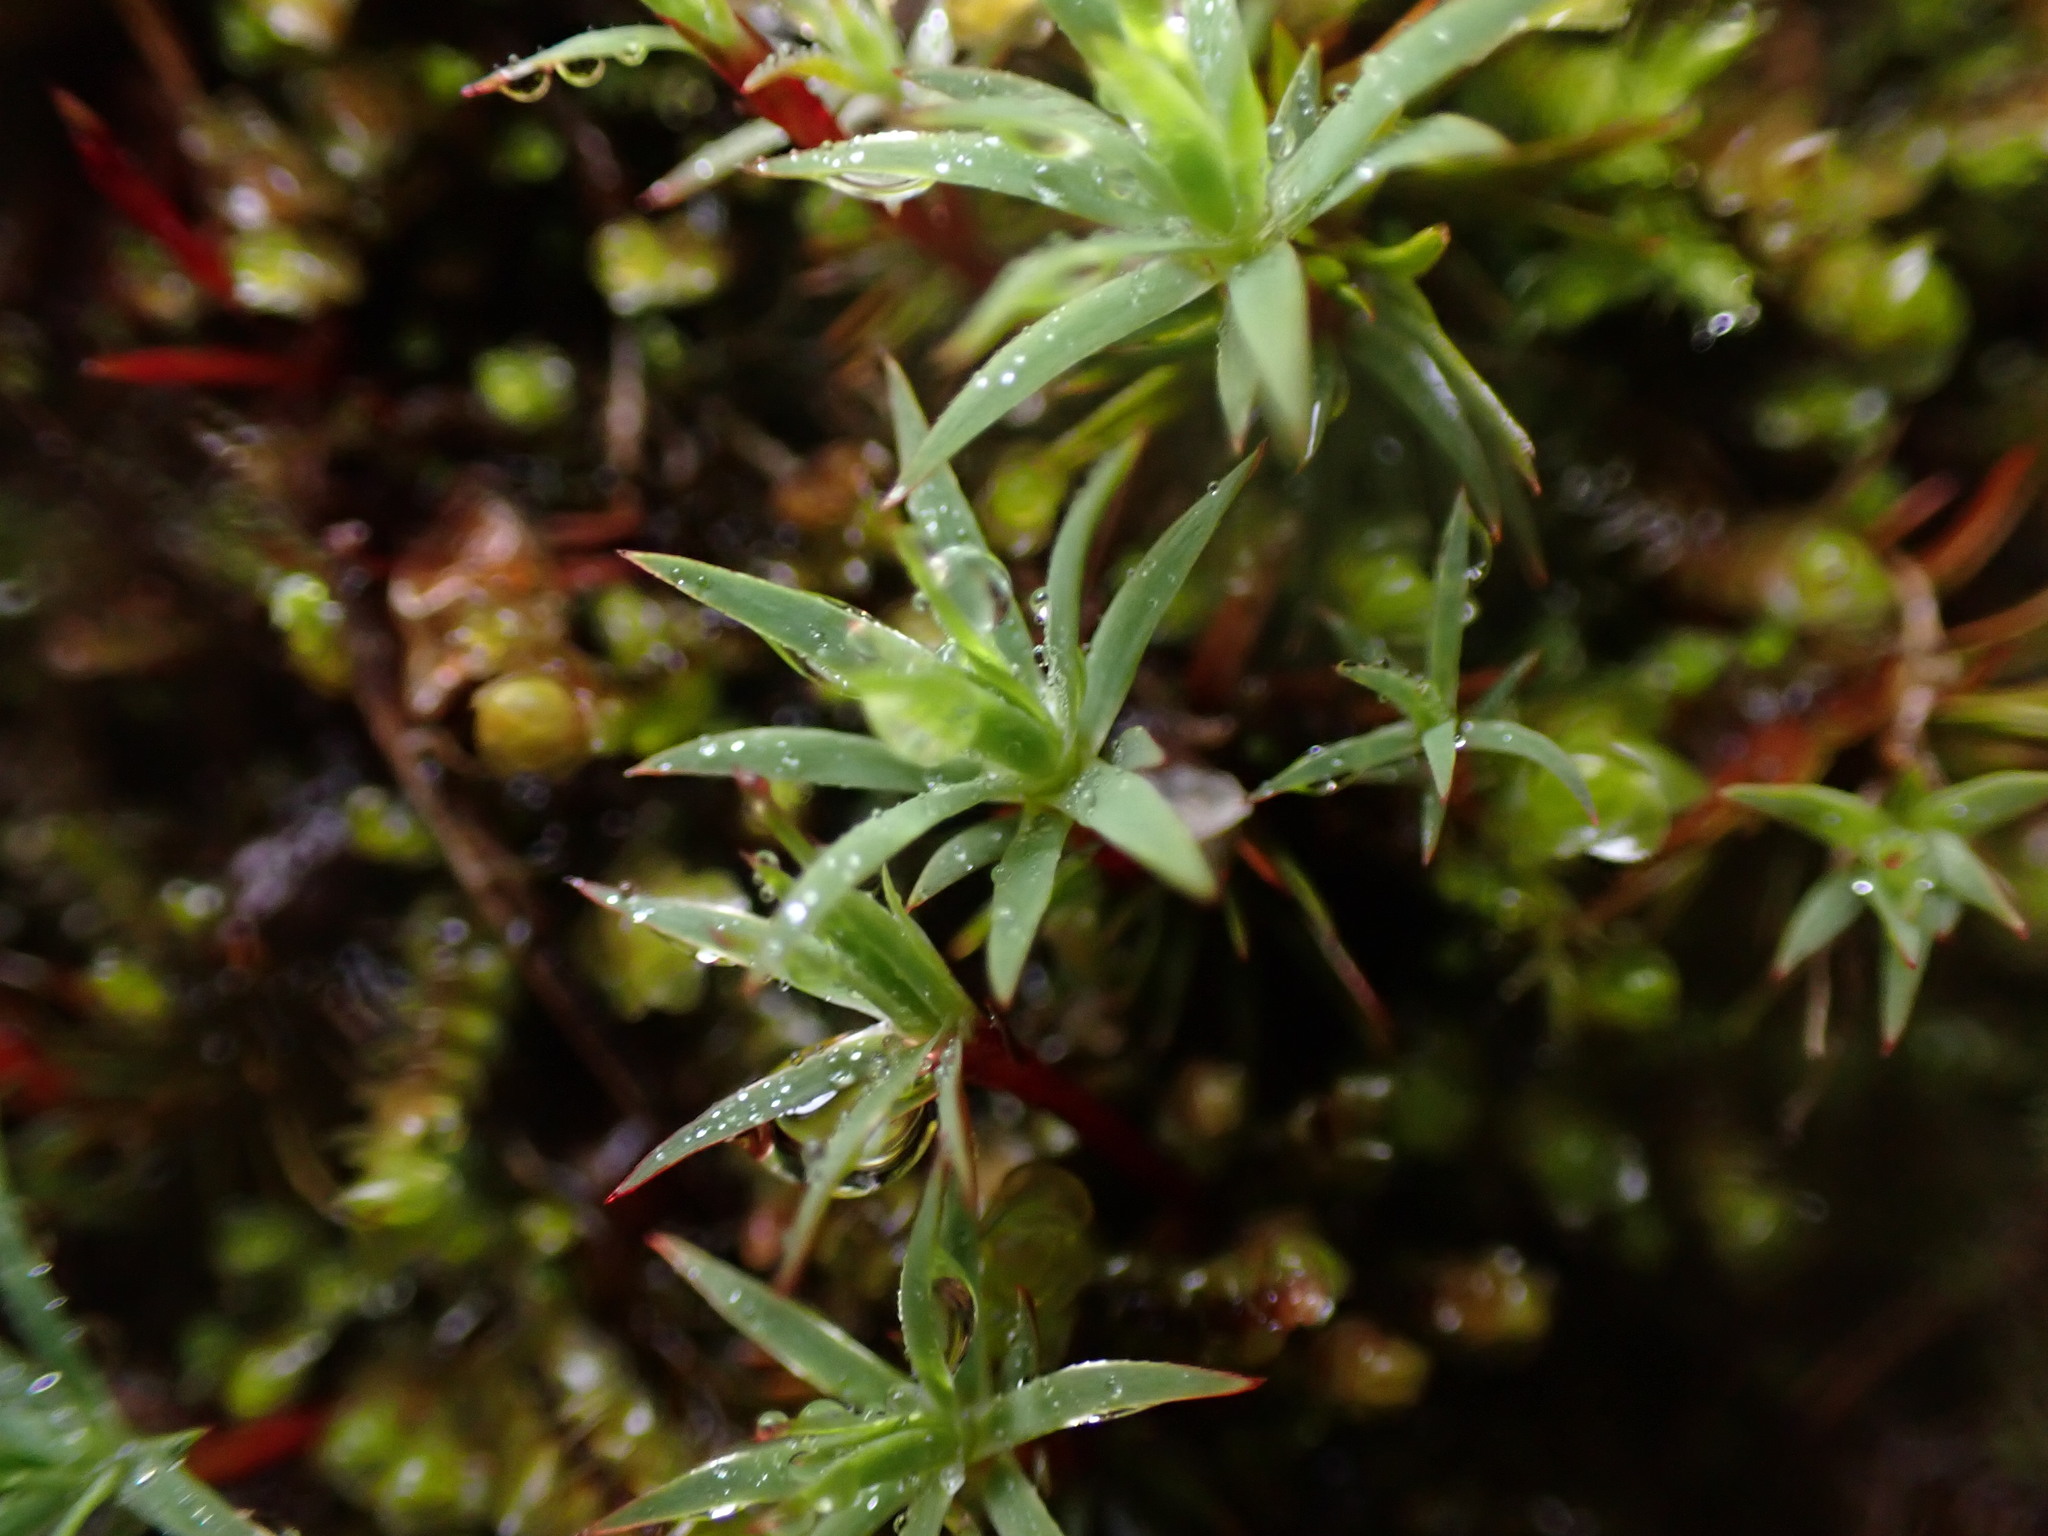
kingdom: Plantae
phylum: Bryophyta
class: Polytrichopsida
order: Polytrichales
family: Polytrichaceae
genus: Pogonatum
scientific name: Pogonatum urnigerum
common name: Urn hair moss
